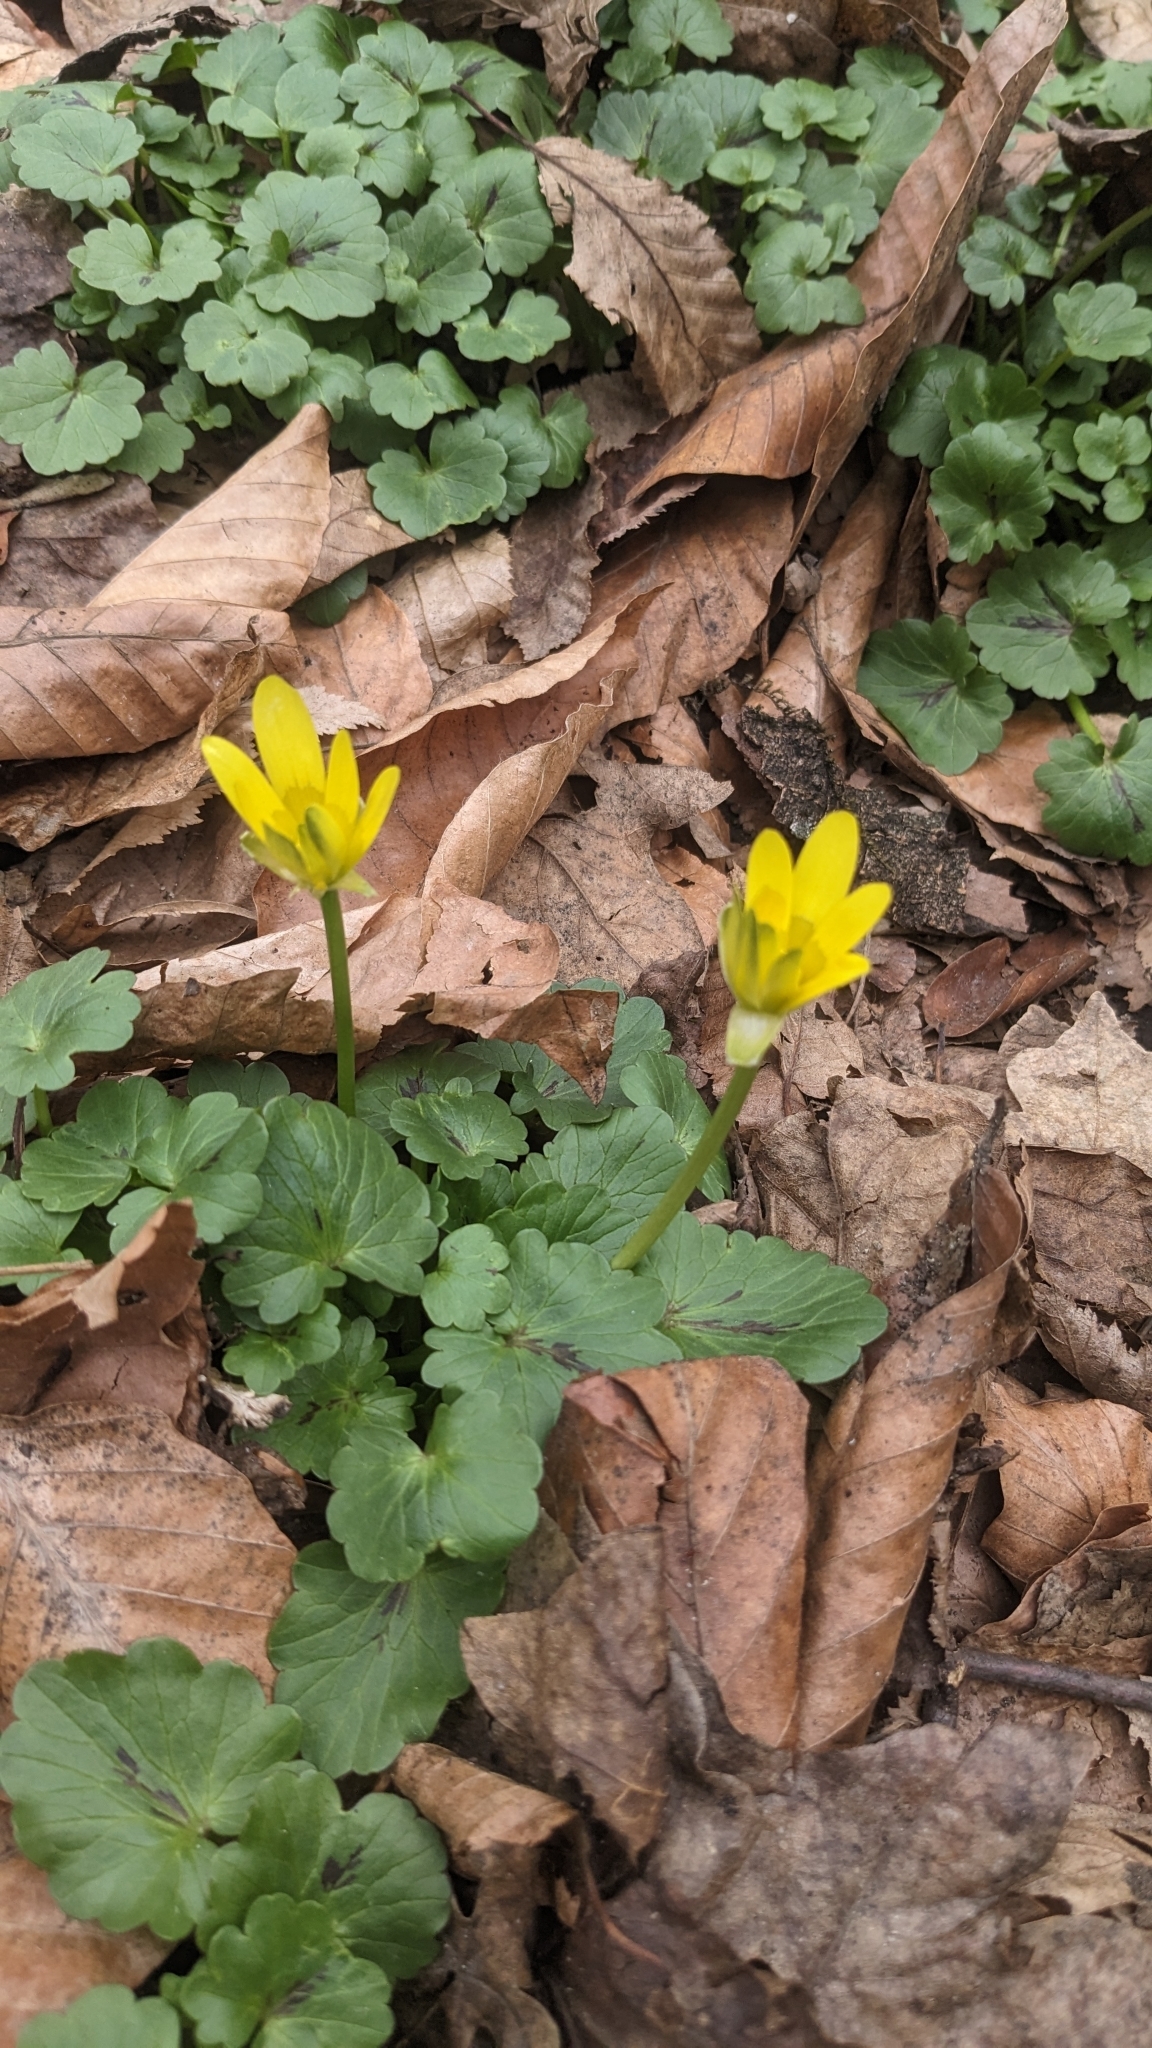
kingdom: Plantae
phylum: Tracheophyta
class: Magnoliopsida
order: Ranunculales
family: Ranunculaceae
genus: Ficaria
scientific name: Ficaria verna
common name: Lesser celandine
